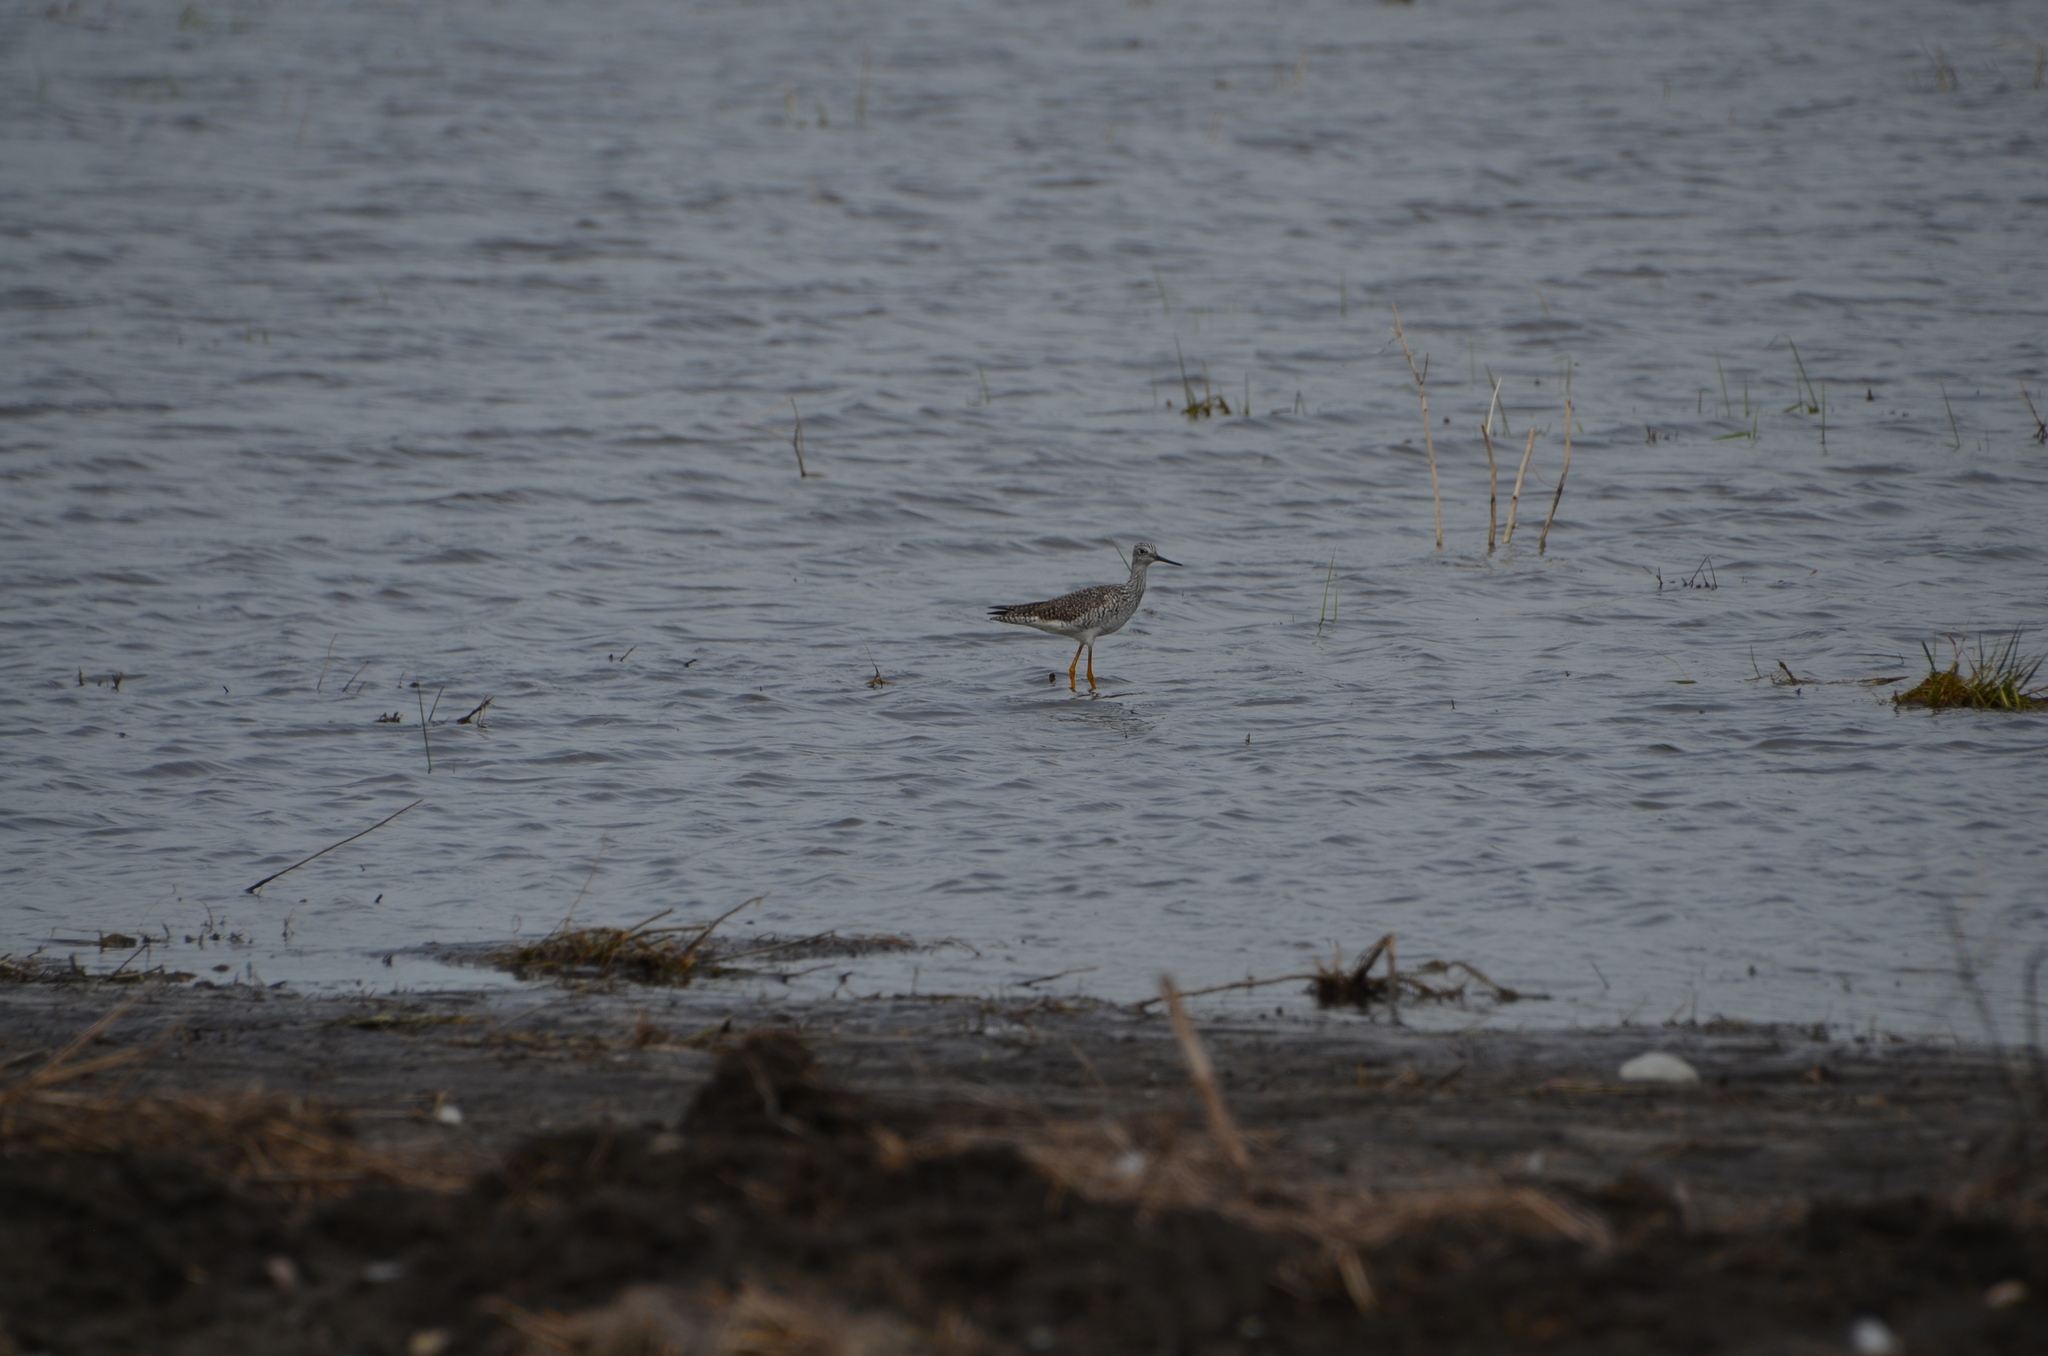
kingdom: Animalia
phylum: Chordata
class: Aves
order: Charadriiformes
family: Scolopacidae
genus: Tringa
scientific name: Tringa melanoleuca
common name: Greater yellowlegs
